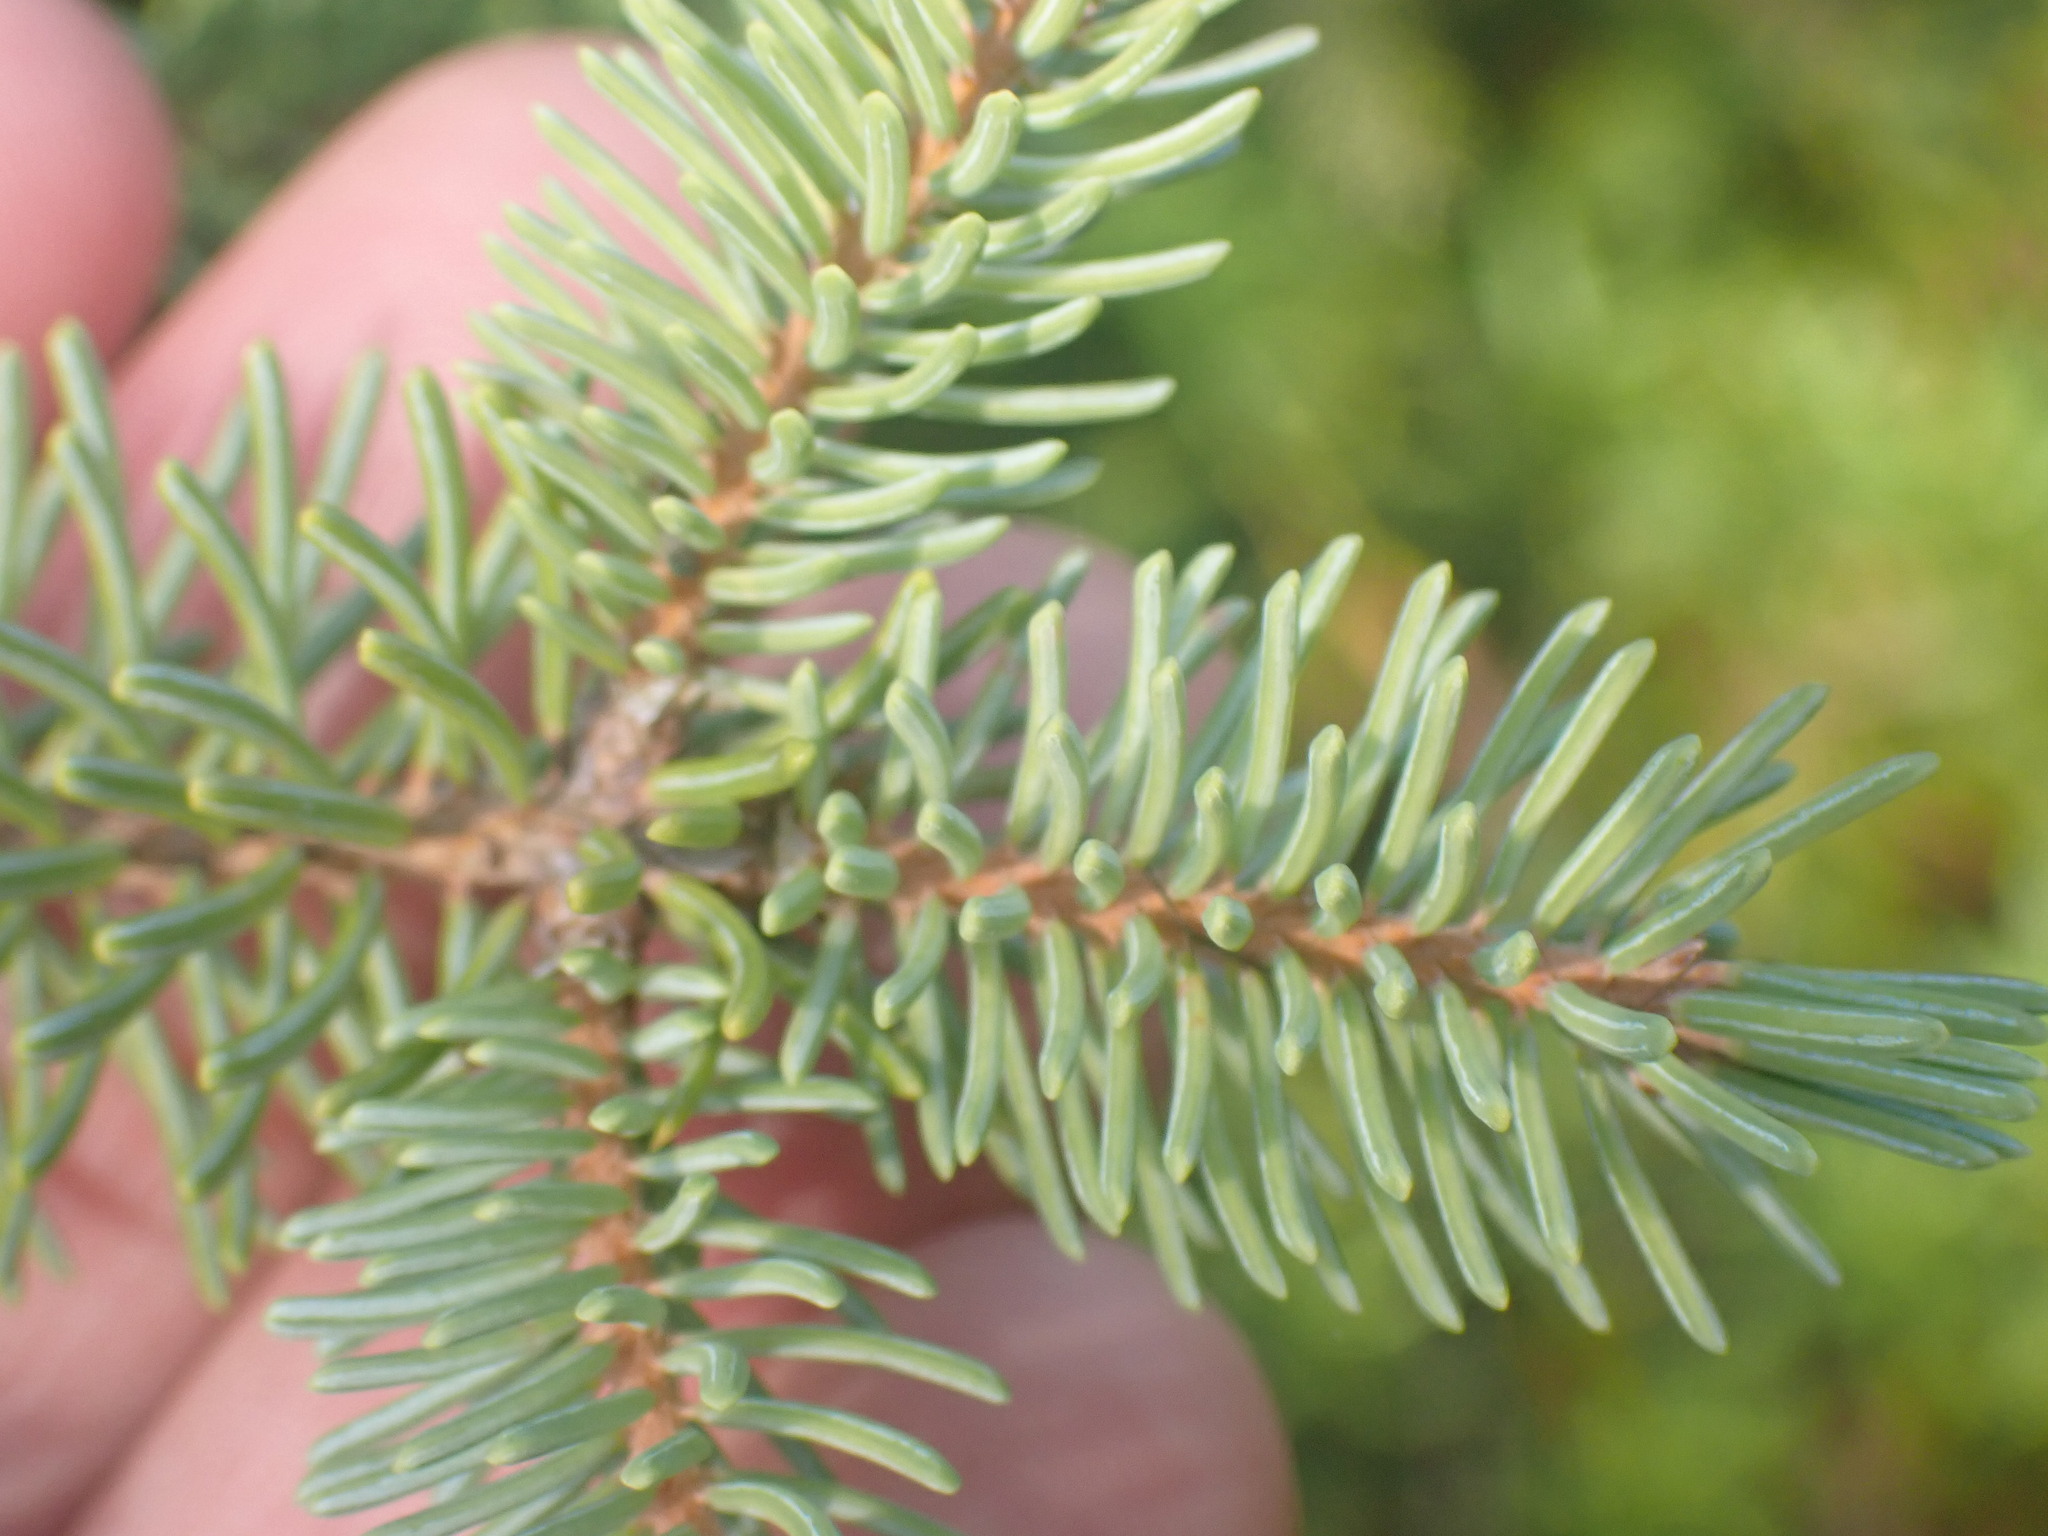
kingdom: Plantae
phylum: Tracheophyta
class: Pinopsida
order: Pinales
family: Pinaceae
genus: Picea
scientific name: Picea
